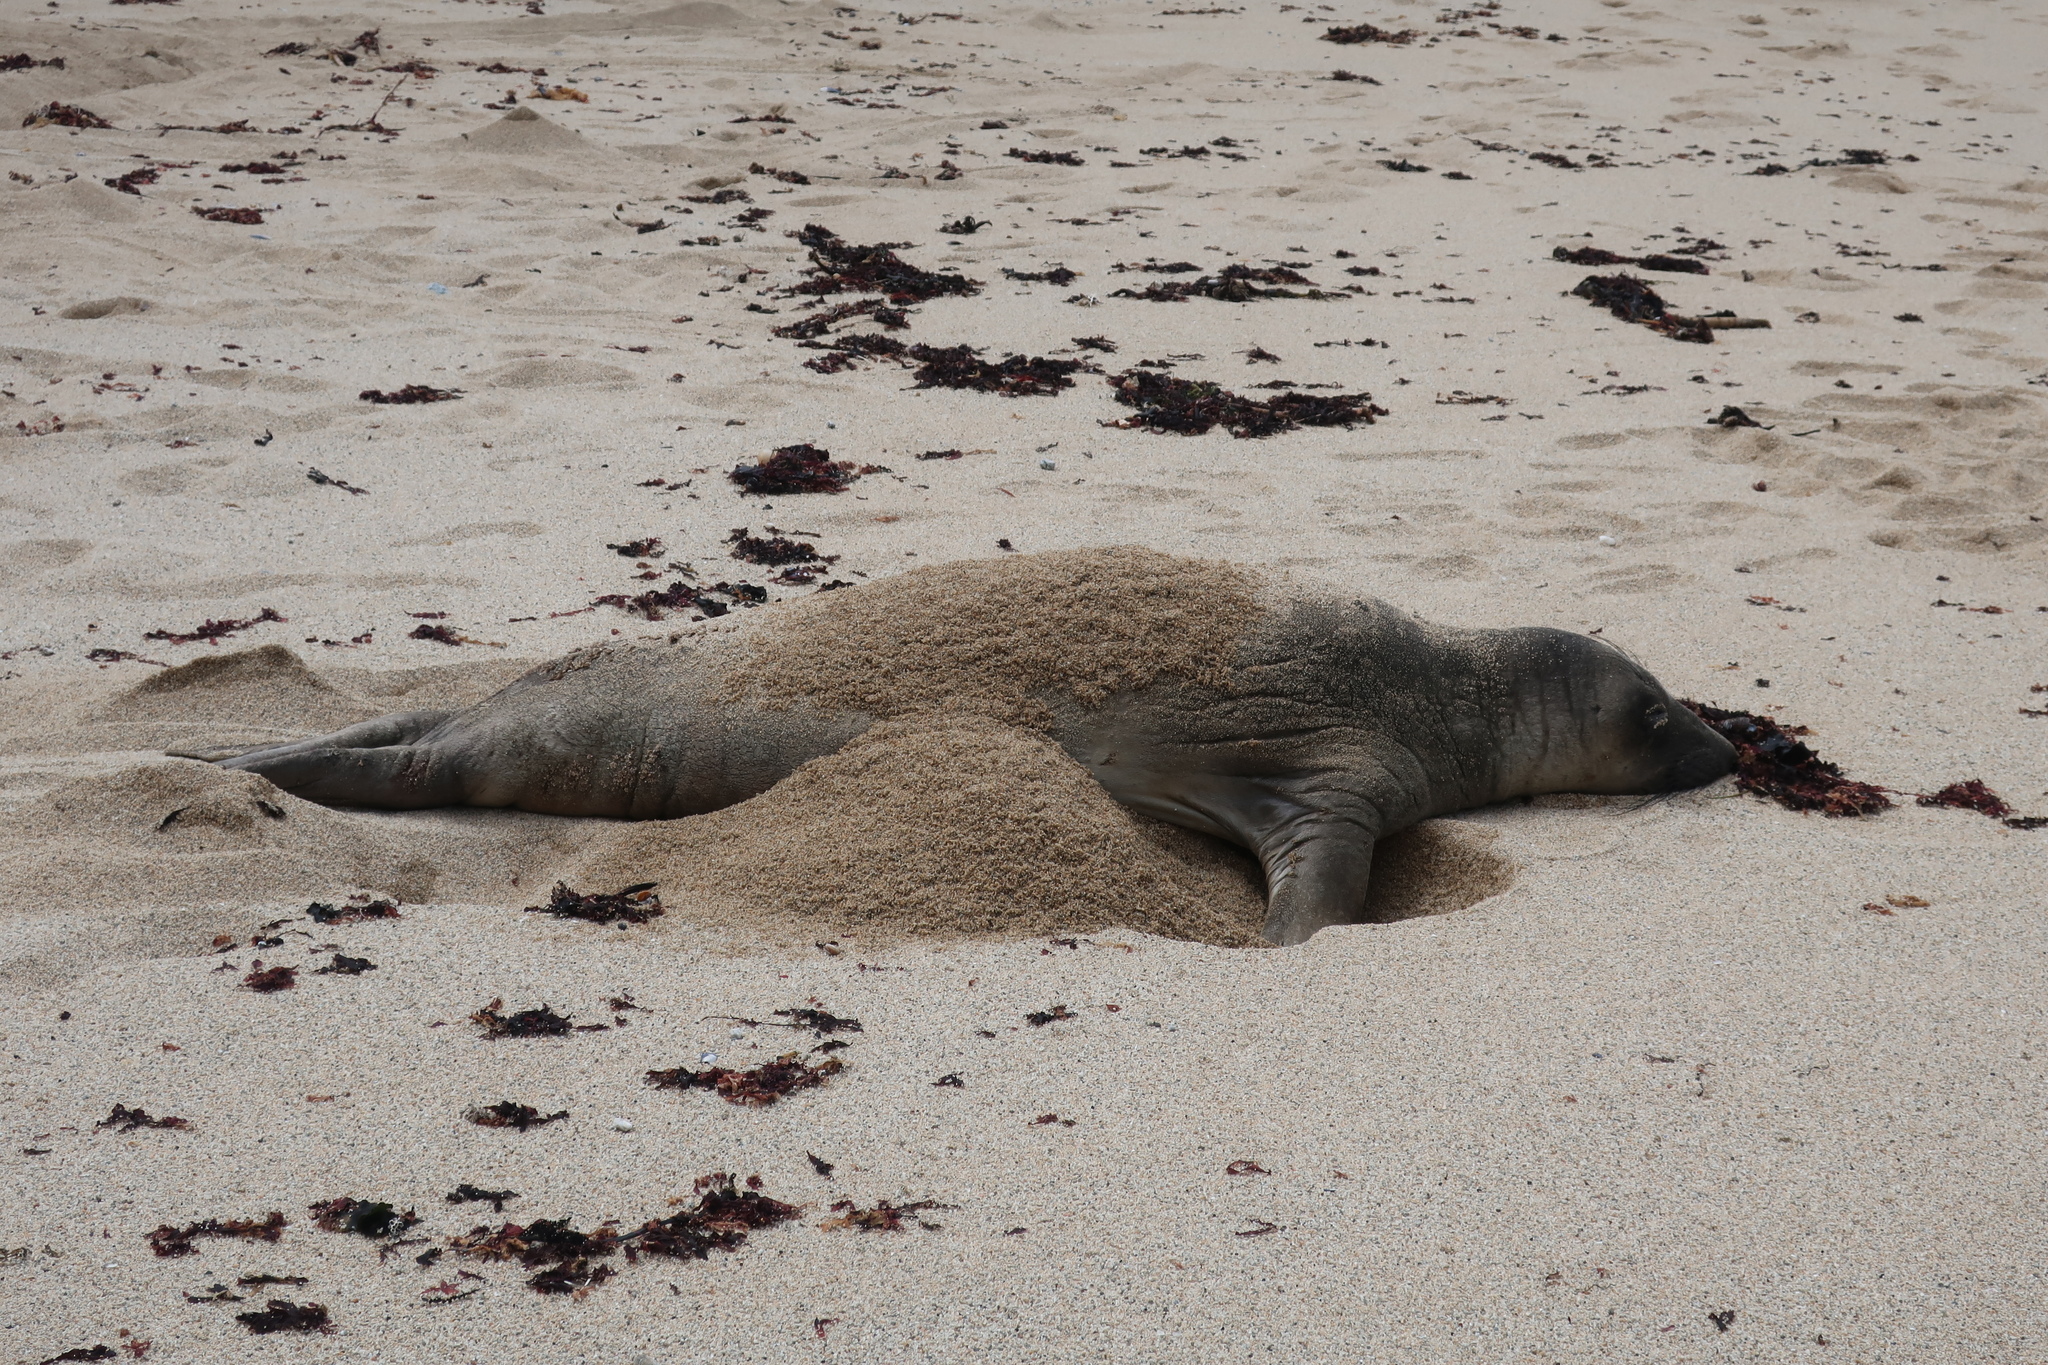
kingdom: Animalia
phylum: Chordata
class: Mammalia
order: Carnivora
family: Phocidae
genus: Mirounga
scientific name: Mirounga angustirostris
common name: Northern elephant seal
